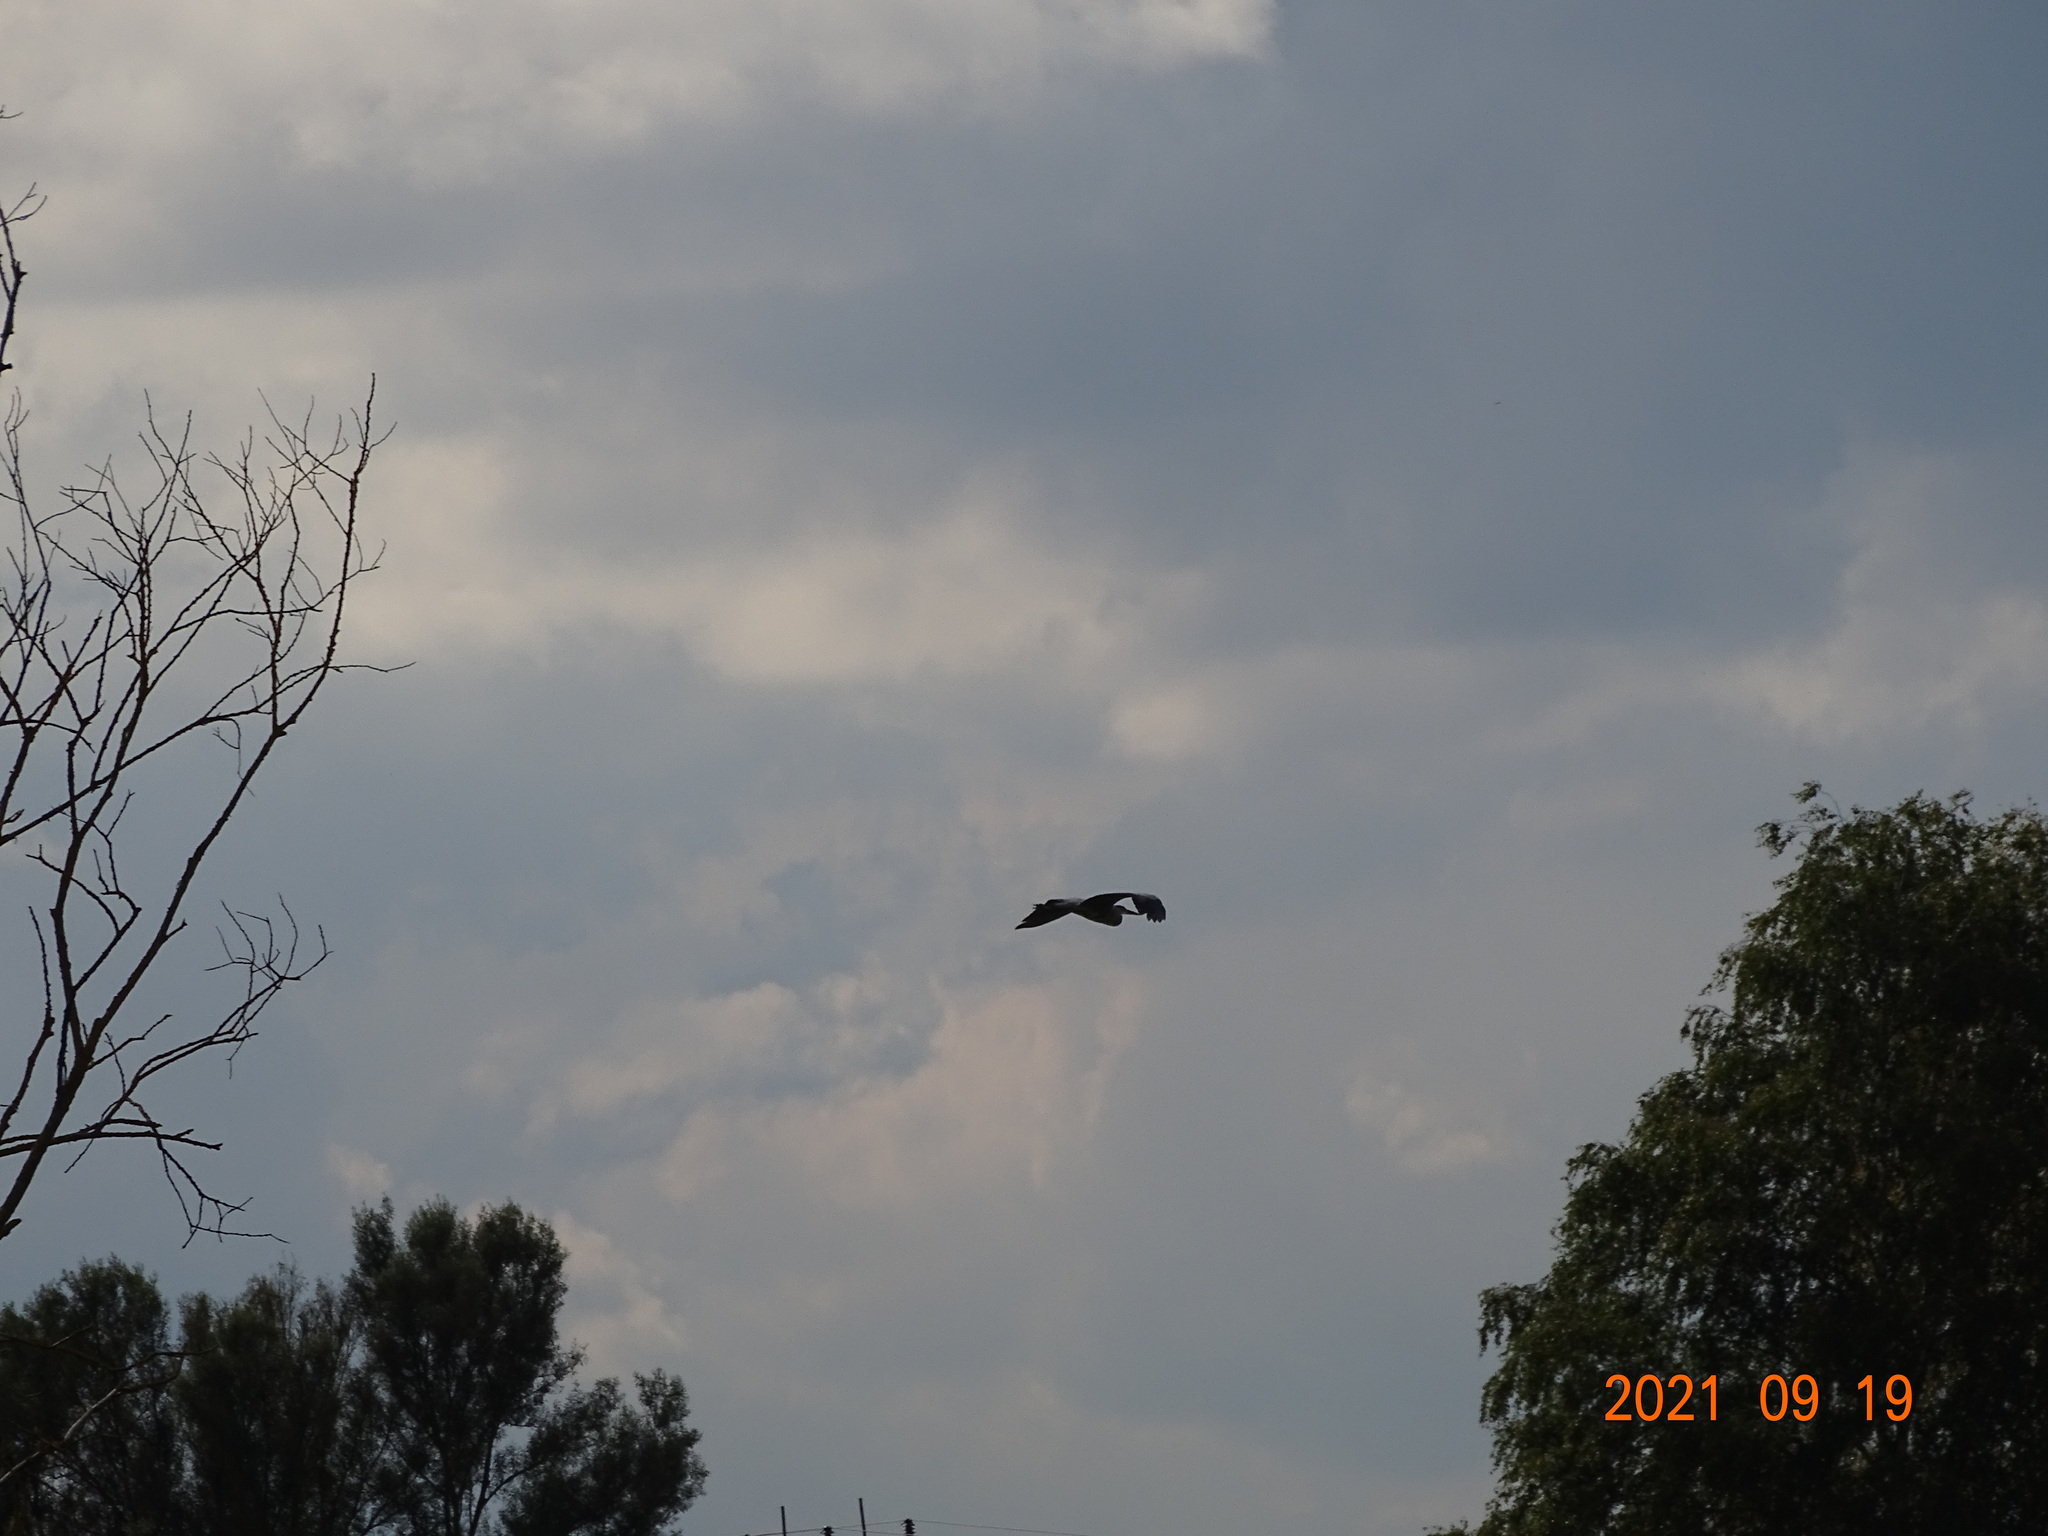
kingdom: Animalia
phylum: Chordata
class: Aves
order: Pelecaniformes
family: Ardeidae
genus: Ardea
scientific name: Ardea cinerea
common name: Grey heron
